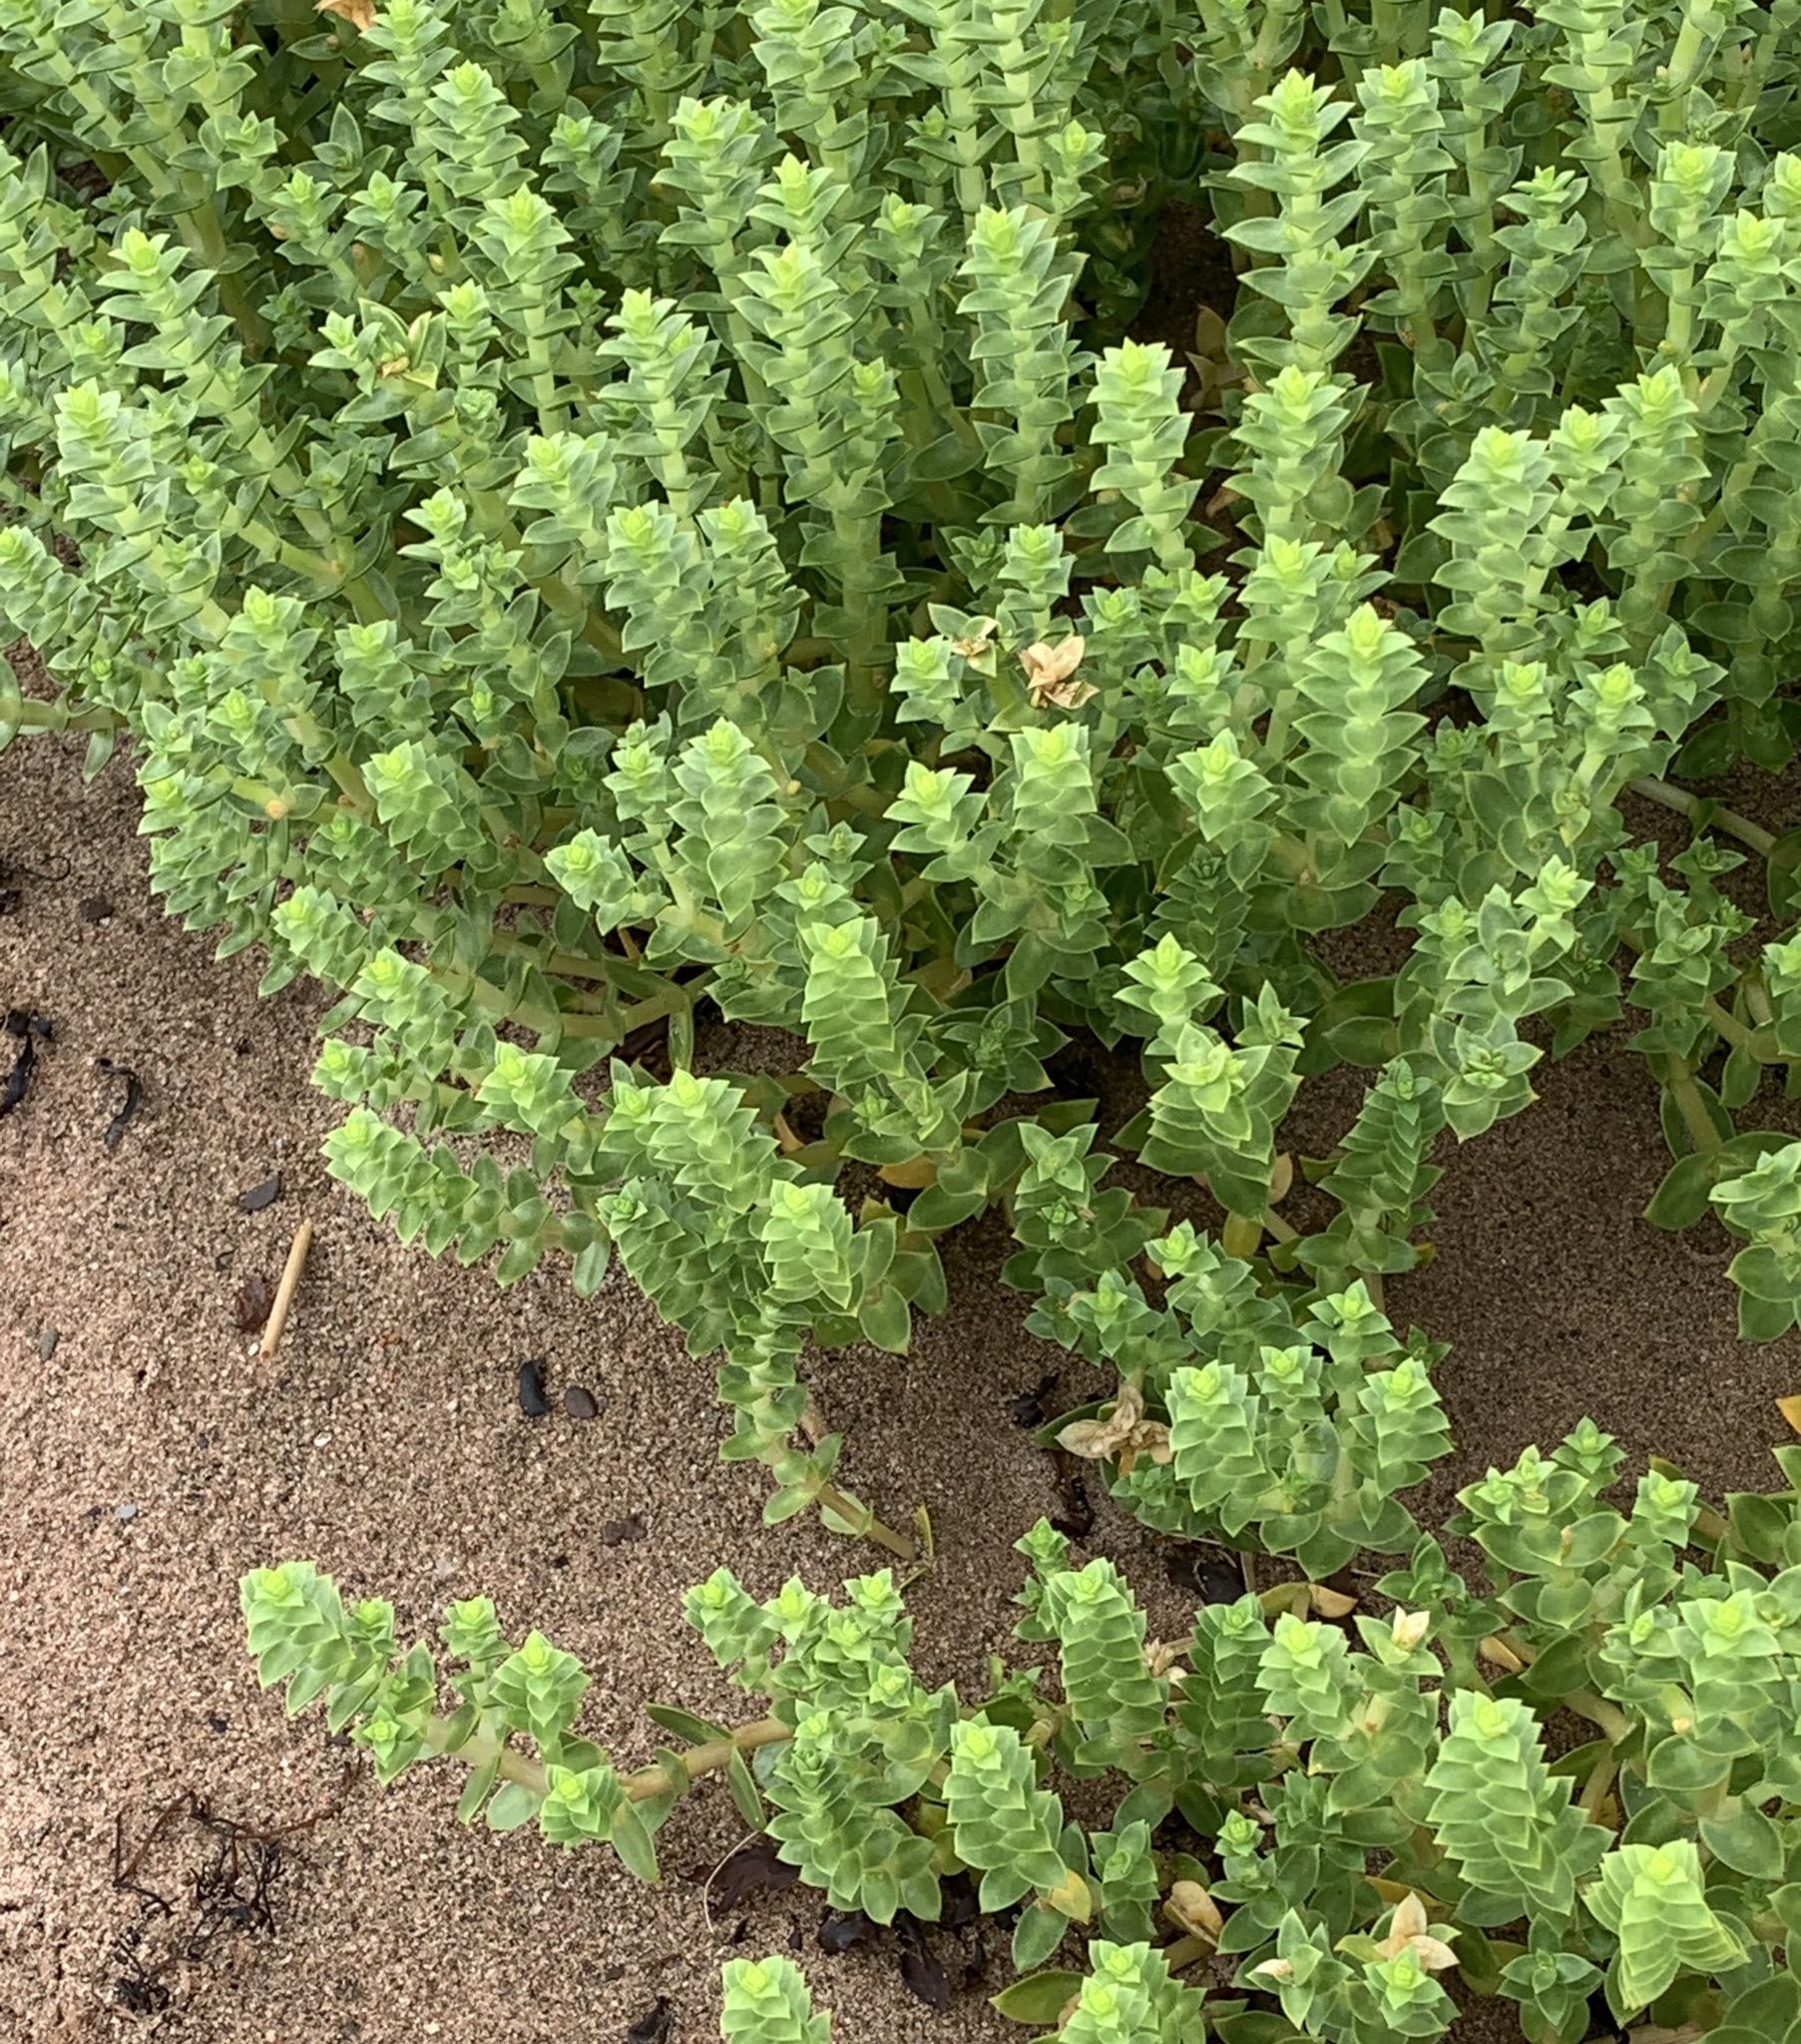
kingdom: Plantae
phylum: Tracheophyta
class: Magnoliopsida
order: Caryophyllales
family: Caryophyllaceae
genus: Honckenya
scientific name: Honckenya peploides
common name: Sea sandwort
